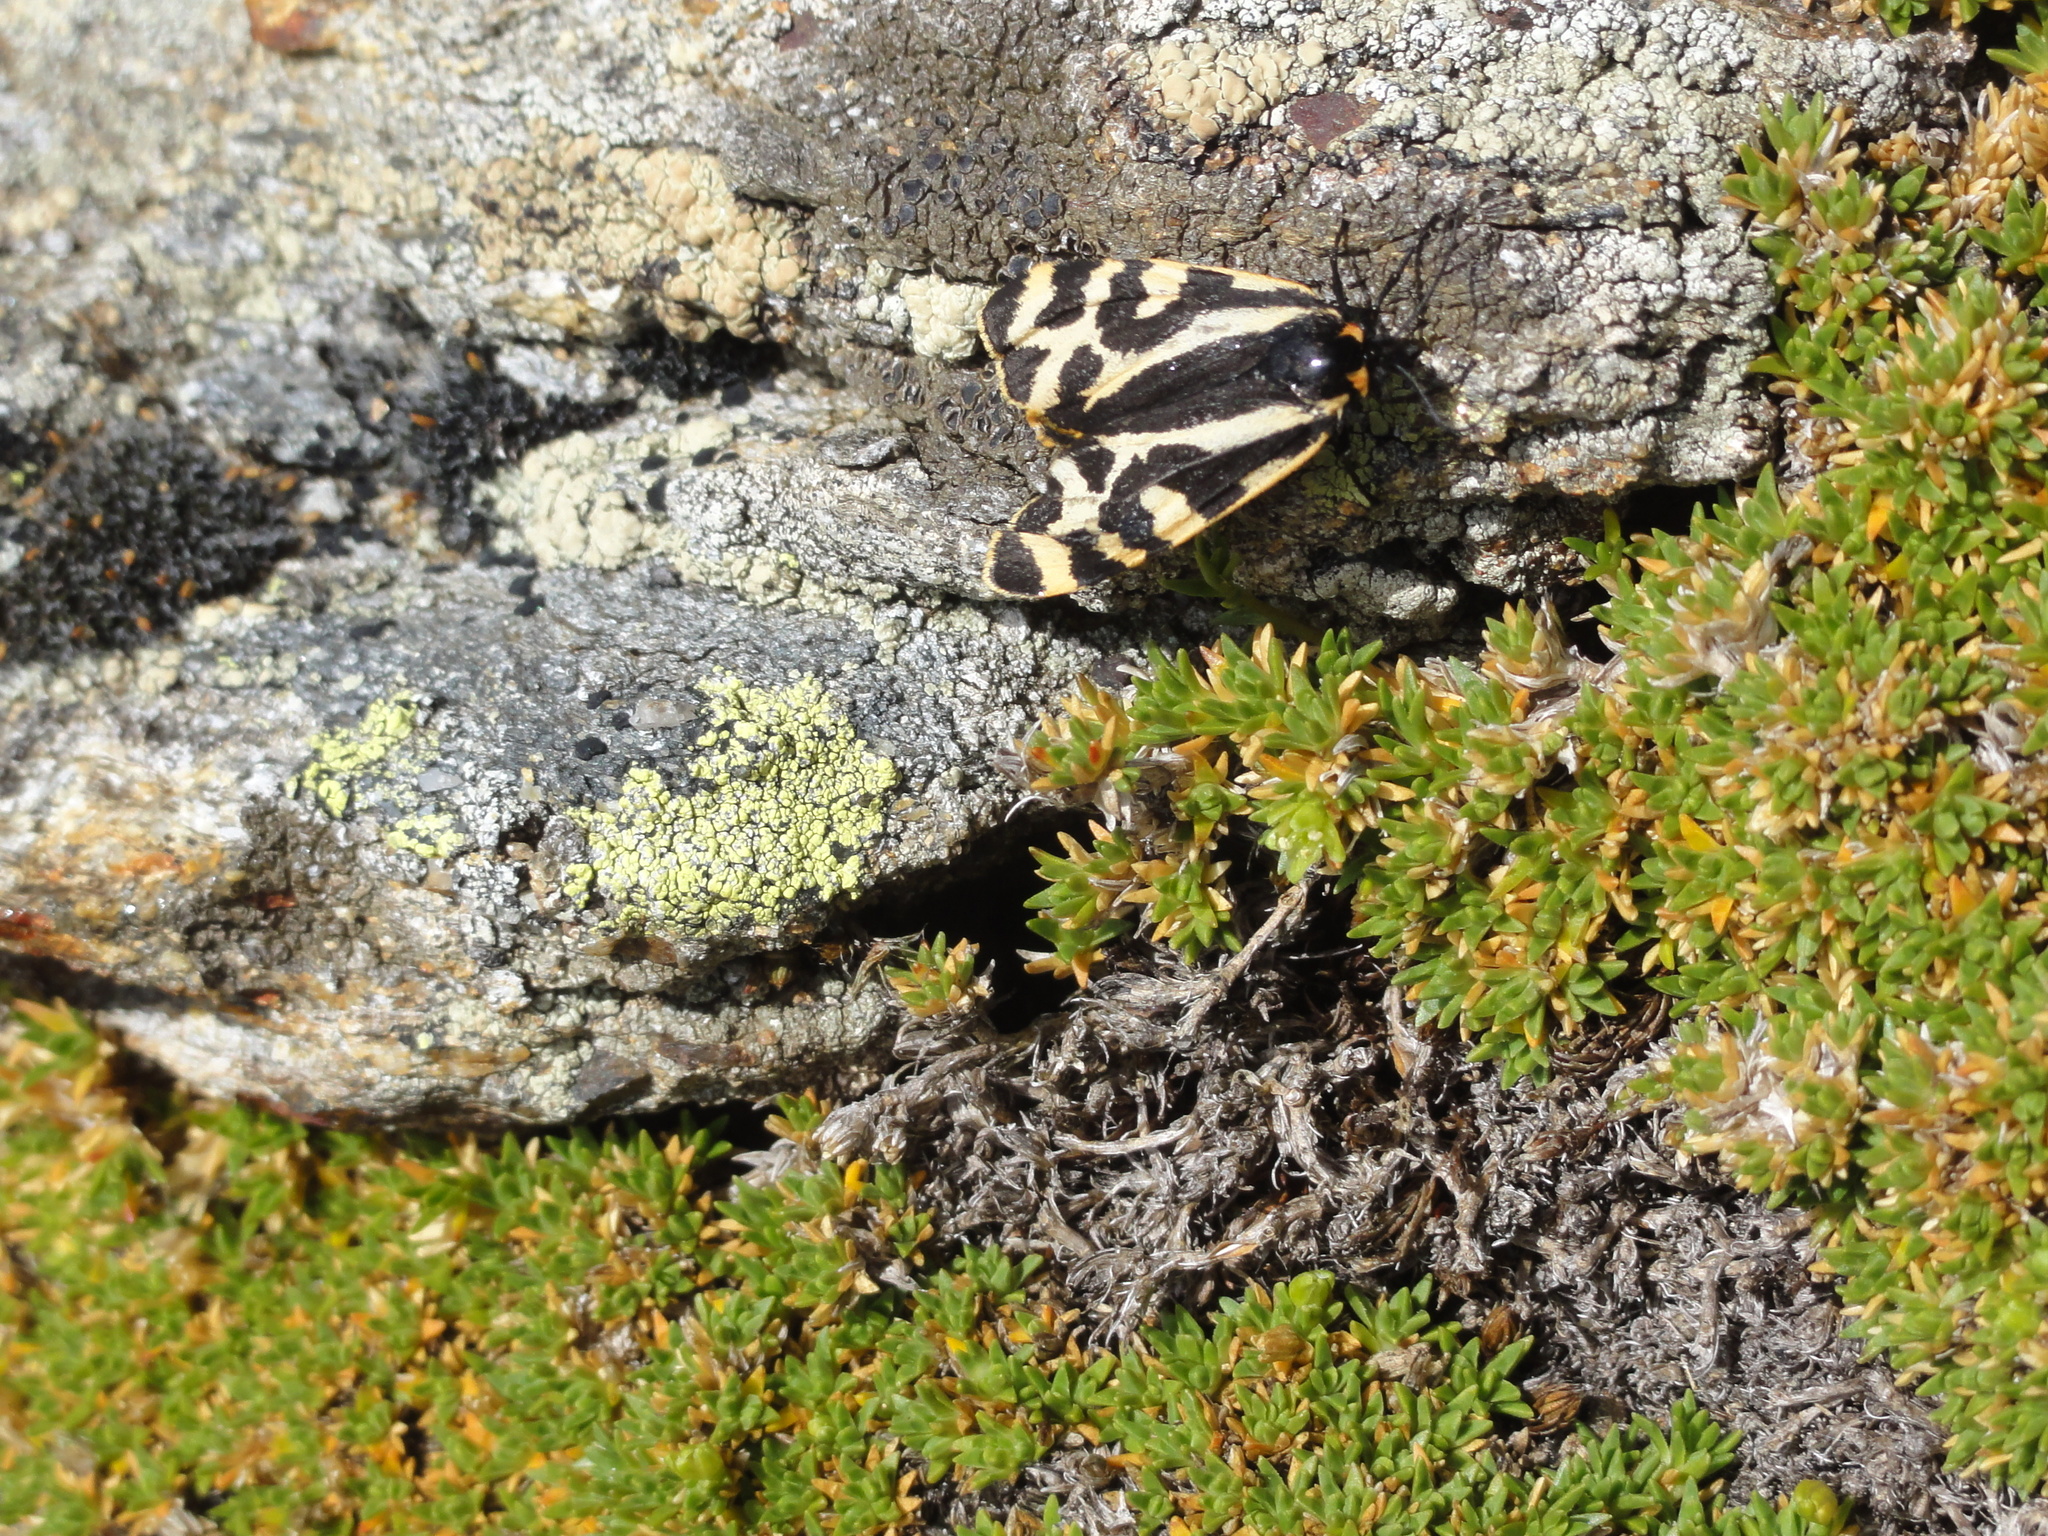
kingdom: Animalia
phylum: Arthropoda
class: Insecta
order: Lepidoptera
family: Erebidae
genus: Parasemia
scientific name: Parasemia plantaginis
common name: Wood tiger
